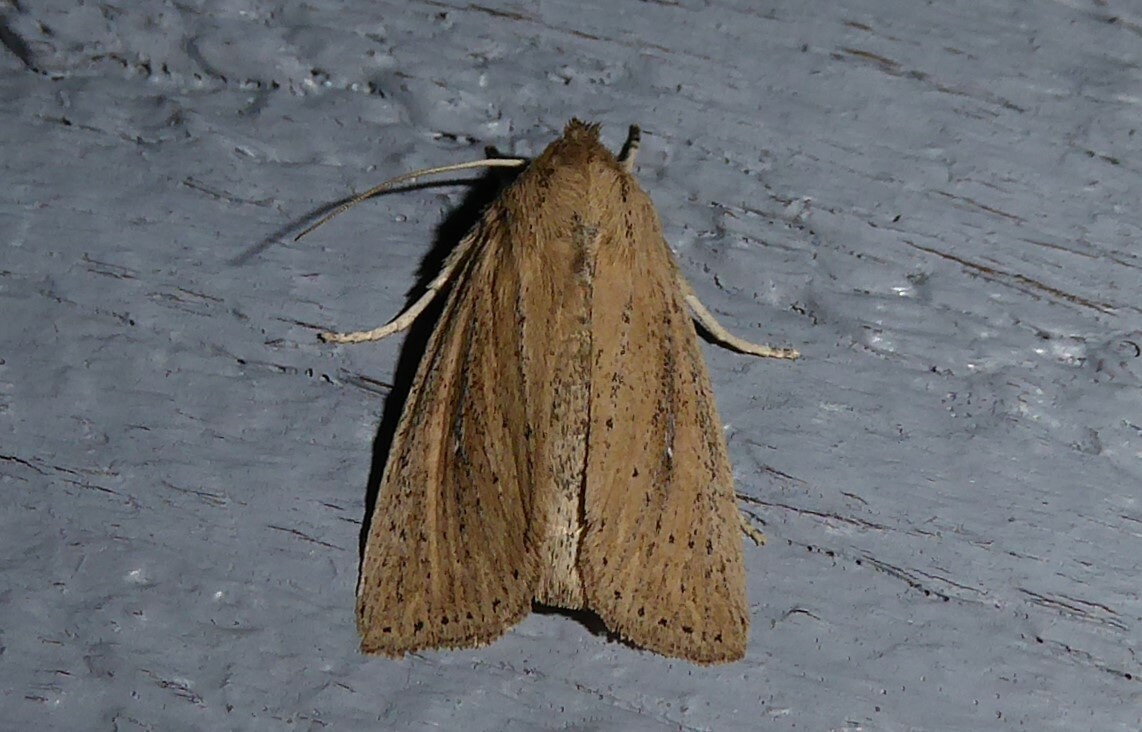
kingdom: Animalia
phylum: Arthropoda
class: Insecta
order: Lepidoptera
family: Noctuidae
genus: Ichneutica
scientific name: Ichneutica
